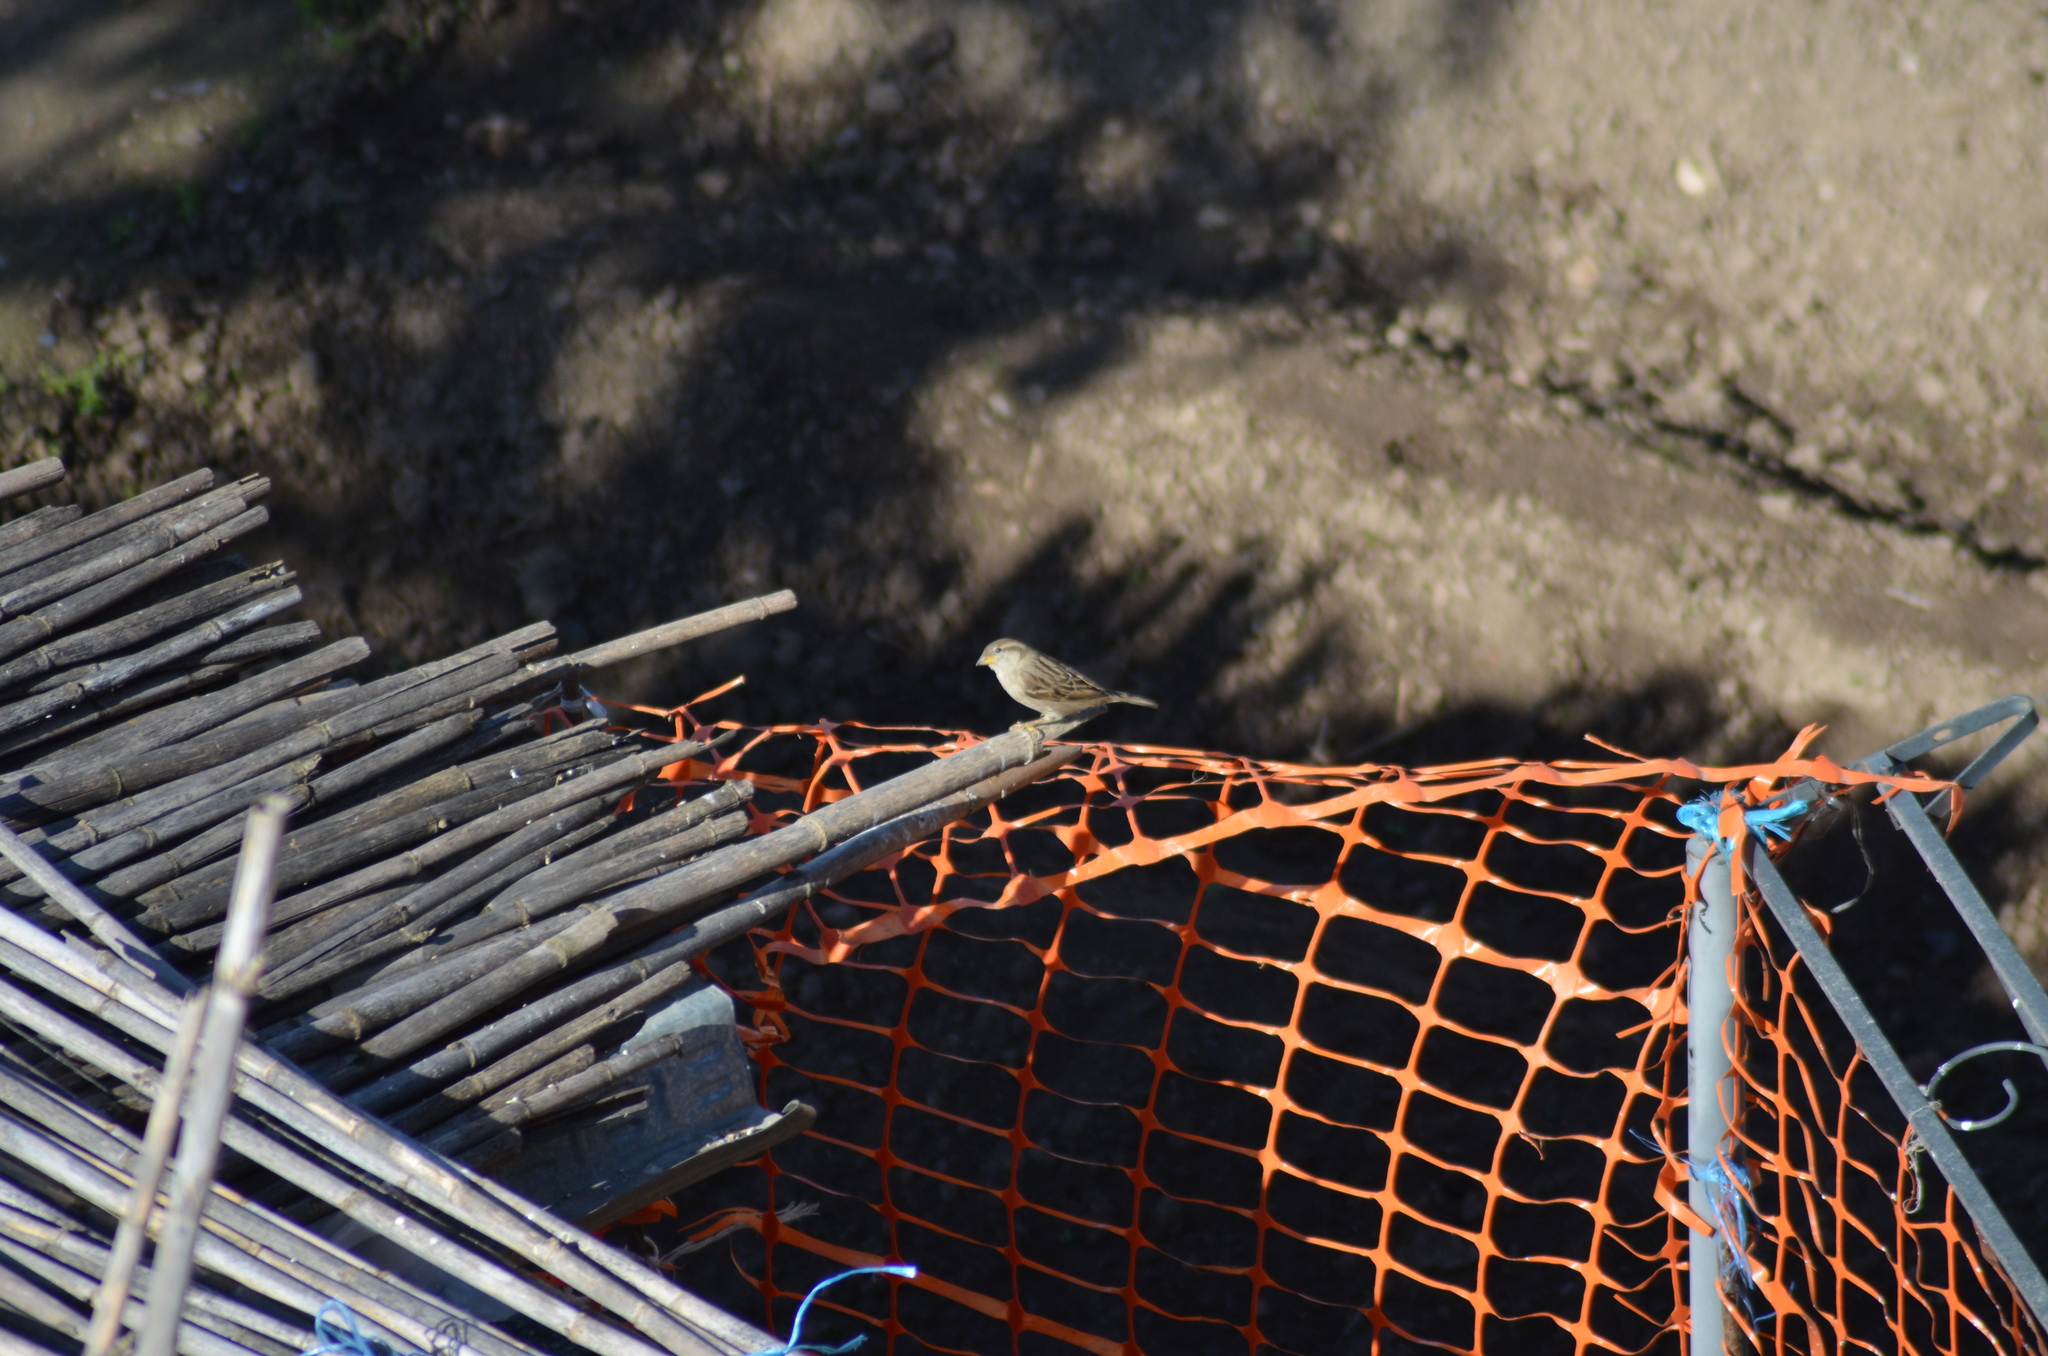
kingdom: Animalia
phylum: Chordata
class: Aves
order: Passeriformes
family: Passeridae
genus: Passer
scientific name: Passer domesticus
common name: House sparrow
